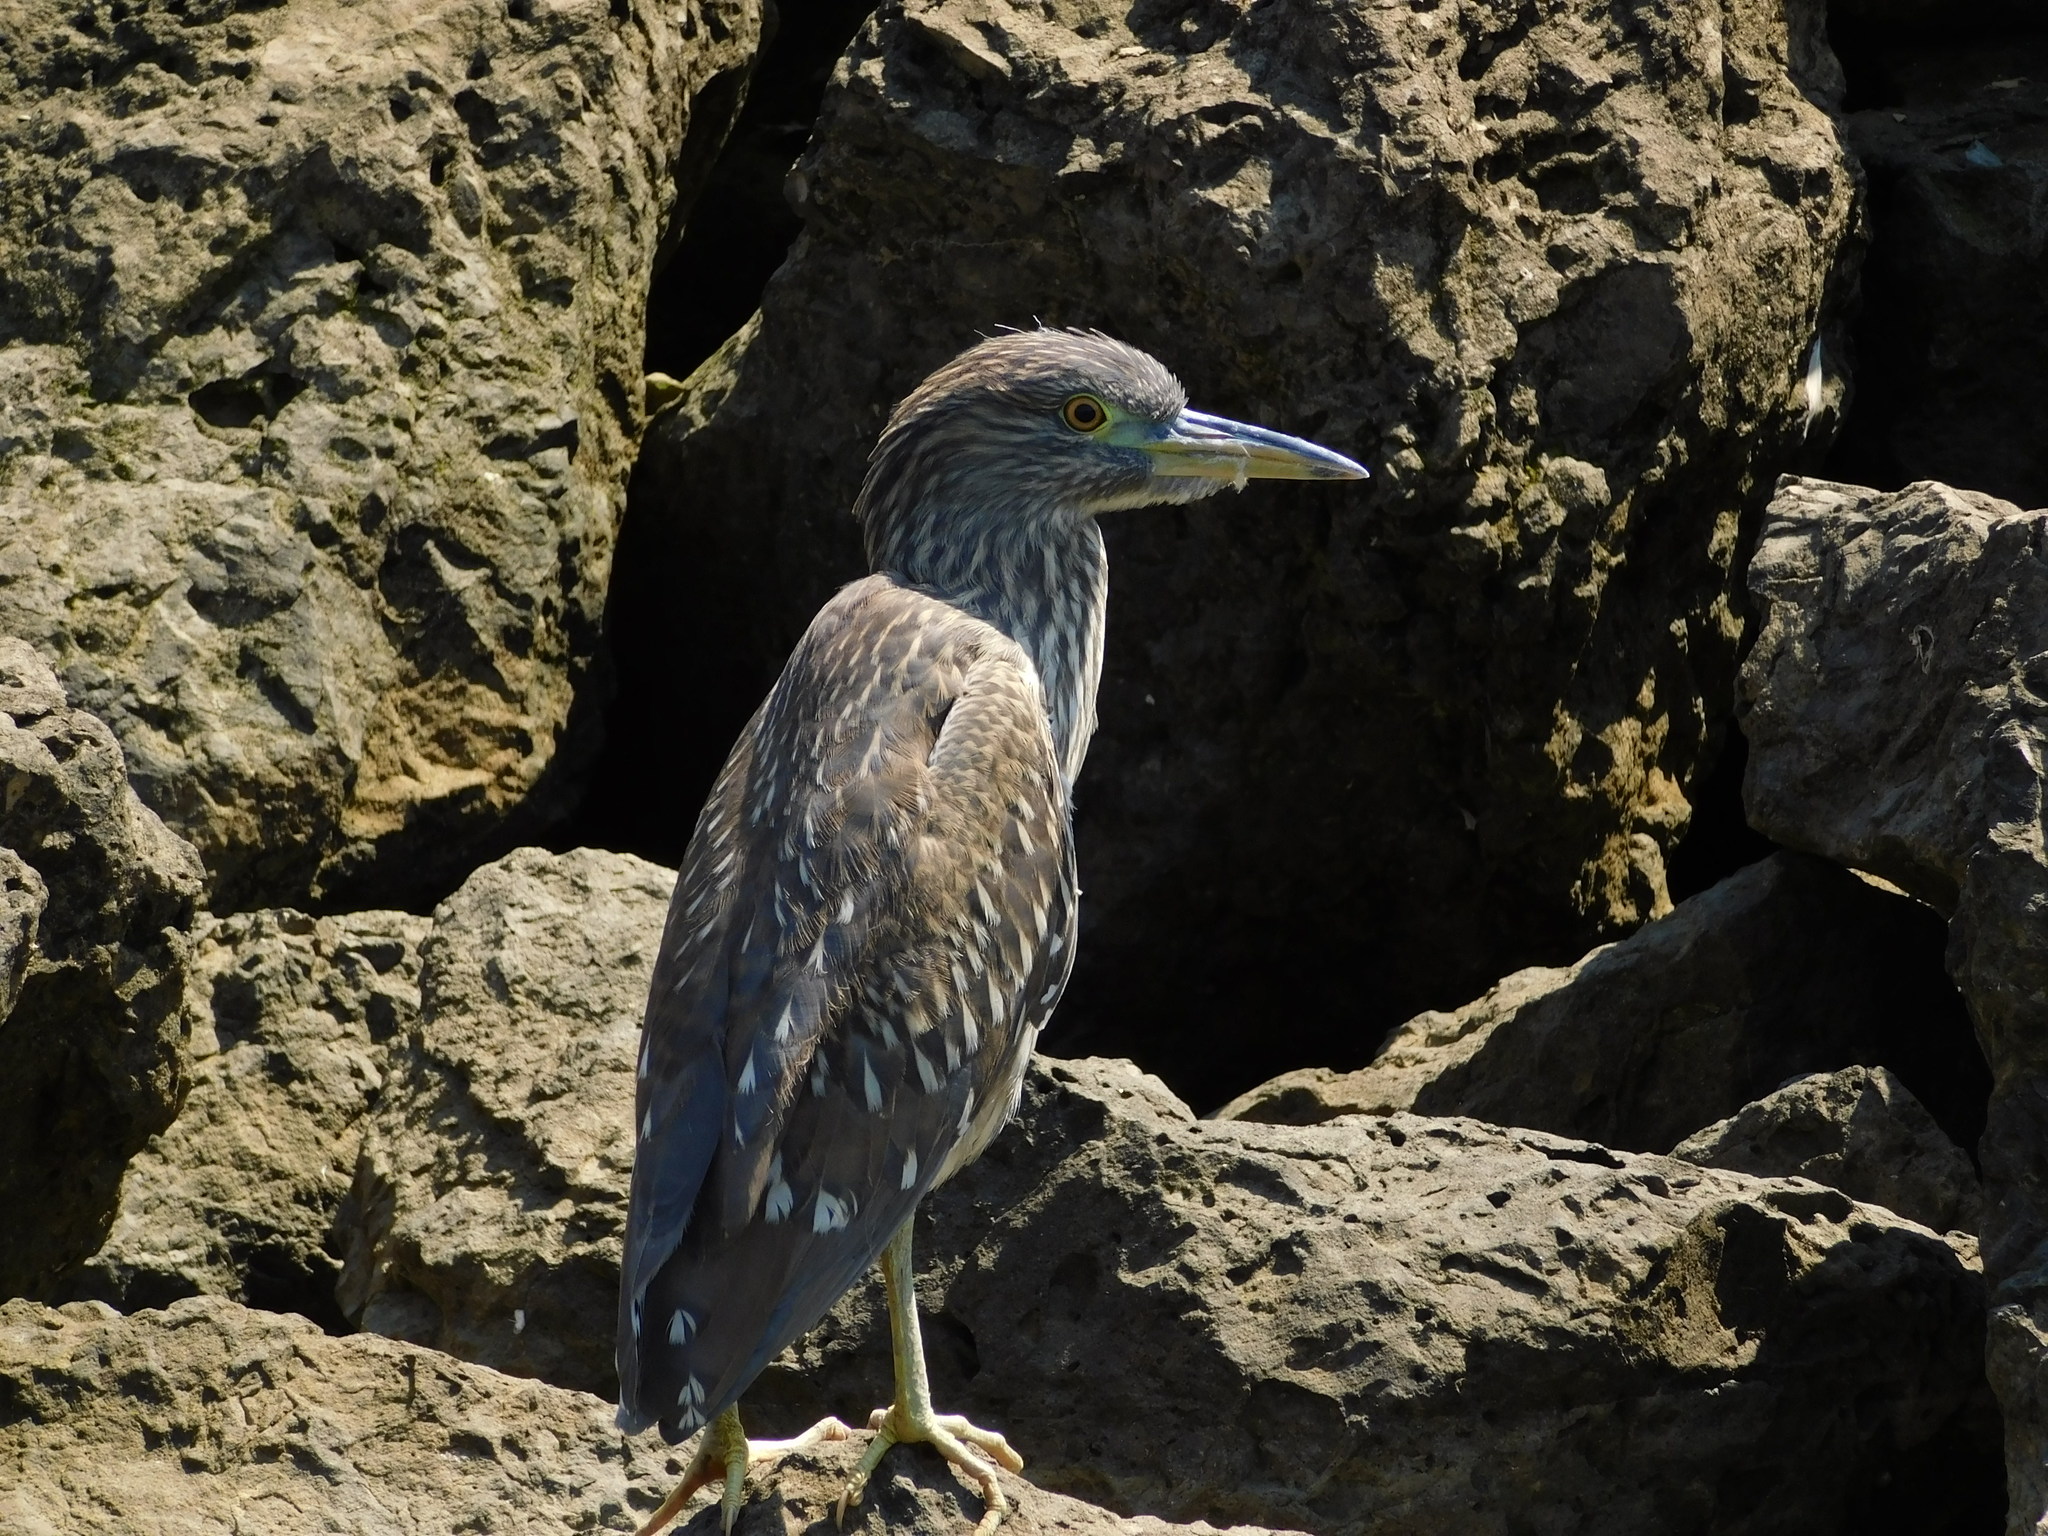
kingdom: Animalia
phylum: Chordata
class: Aves
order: Pelecaniformes
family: Ardeidae
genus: Nycticorax
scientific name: Nycticorax nycticorax
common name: Black-crowned night heron
